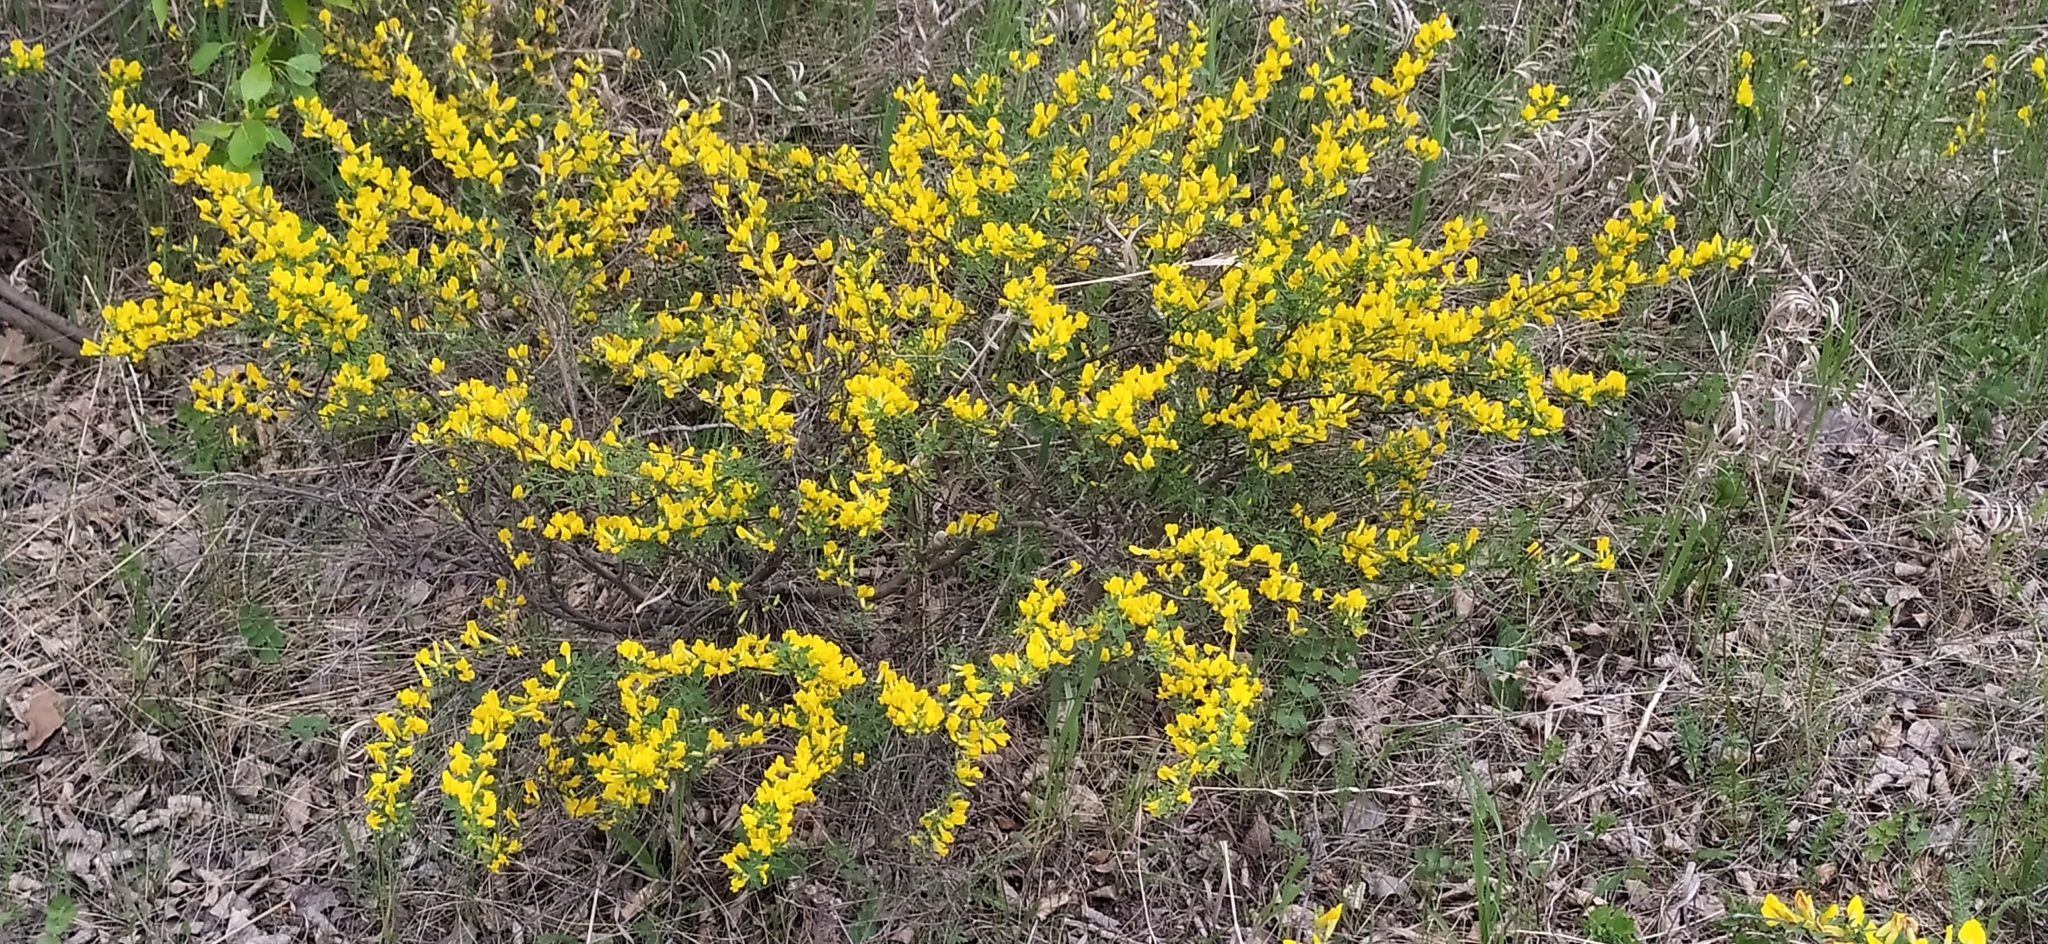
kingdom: Plantae
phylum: Tracheophyta
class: Magnoliopsida
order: Fabales
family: Fabaceae
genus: Chamaecytisus
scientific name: Chamaecytisus ruthenicus
